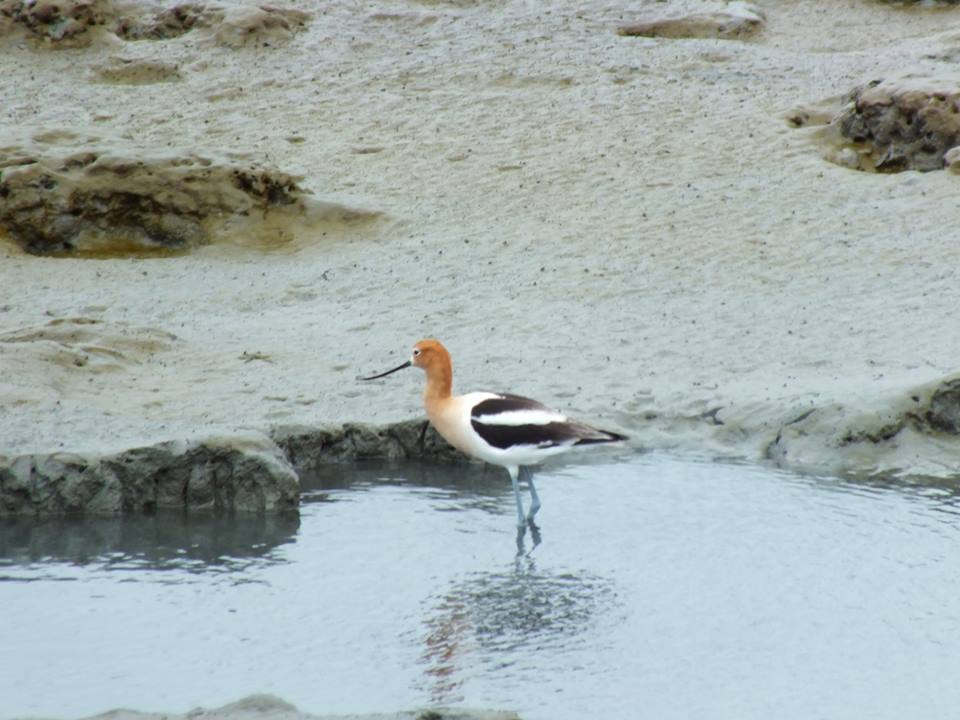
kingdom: Animalia
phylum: Chordata
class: Aves
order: Charadriiformes
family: Recurvirostridae
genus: Recurvirostra
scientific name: Recurvirostra americana
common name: American avocet
